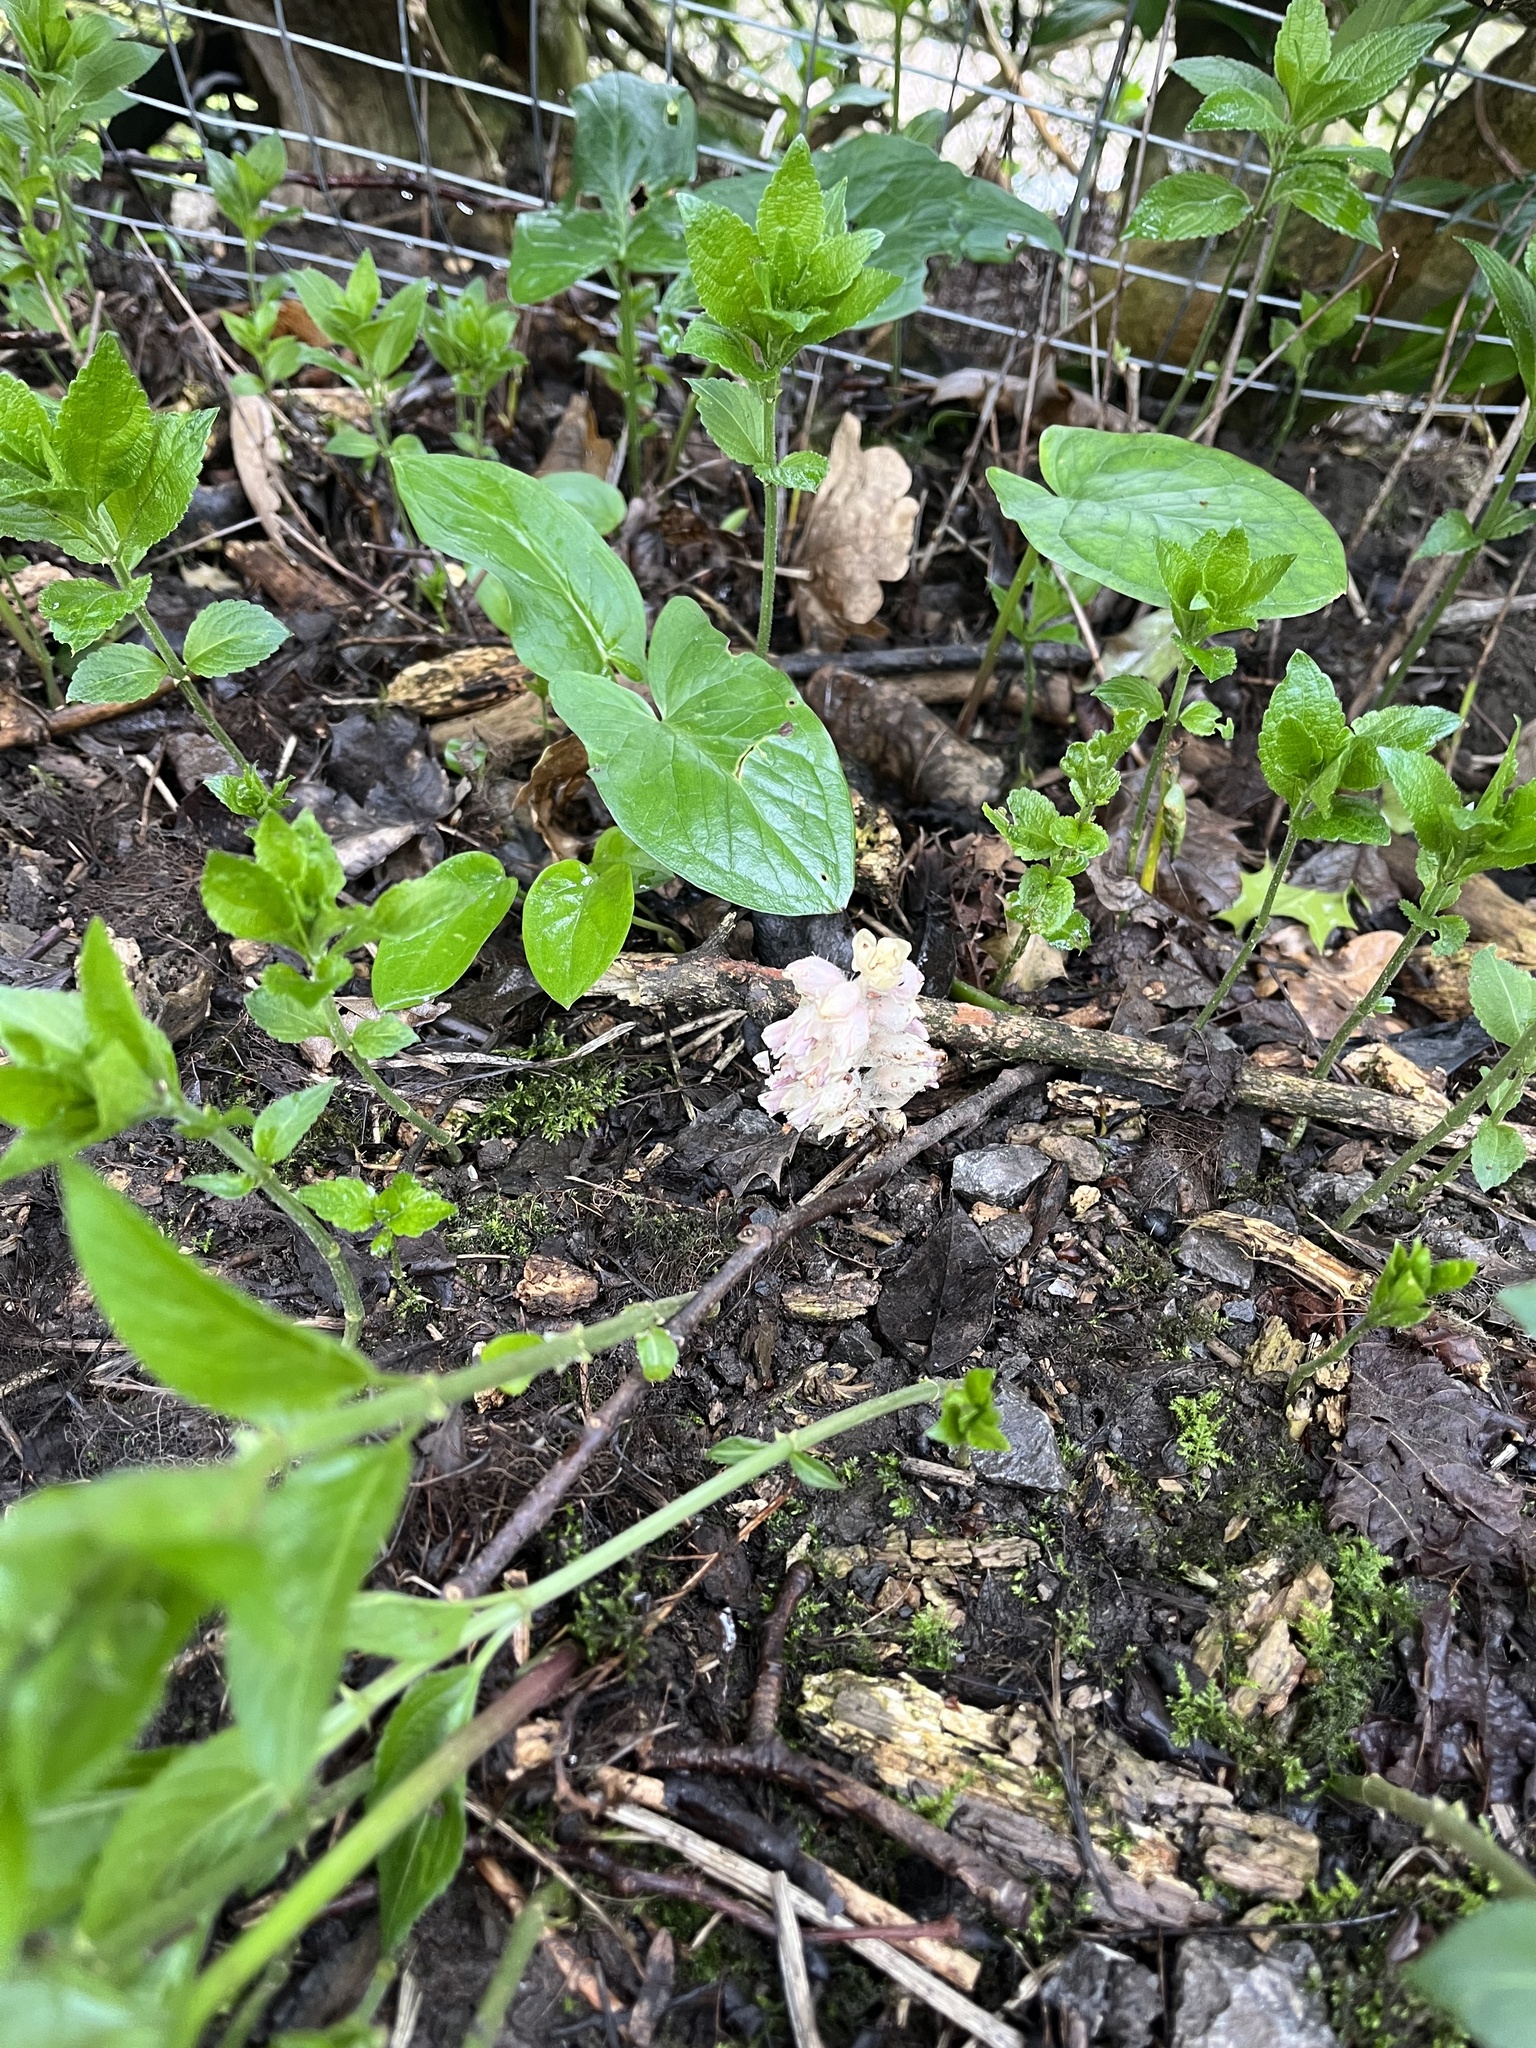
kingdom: Plantae
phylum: Tracheophyta
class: Magnoliopsida
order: Lamiales
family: Orobanchaceae
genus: Lathraea
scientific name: Lathraea squamaria
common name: Toothwort
